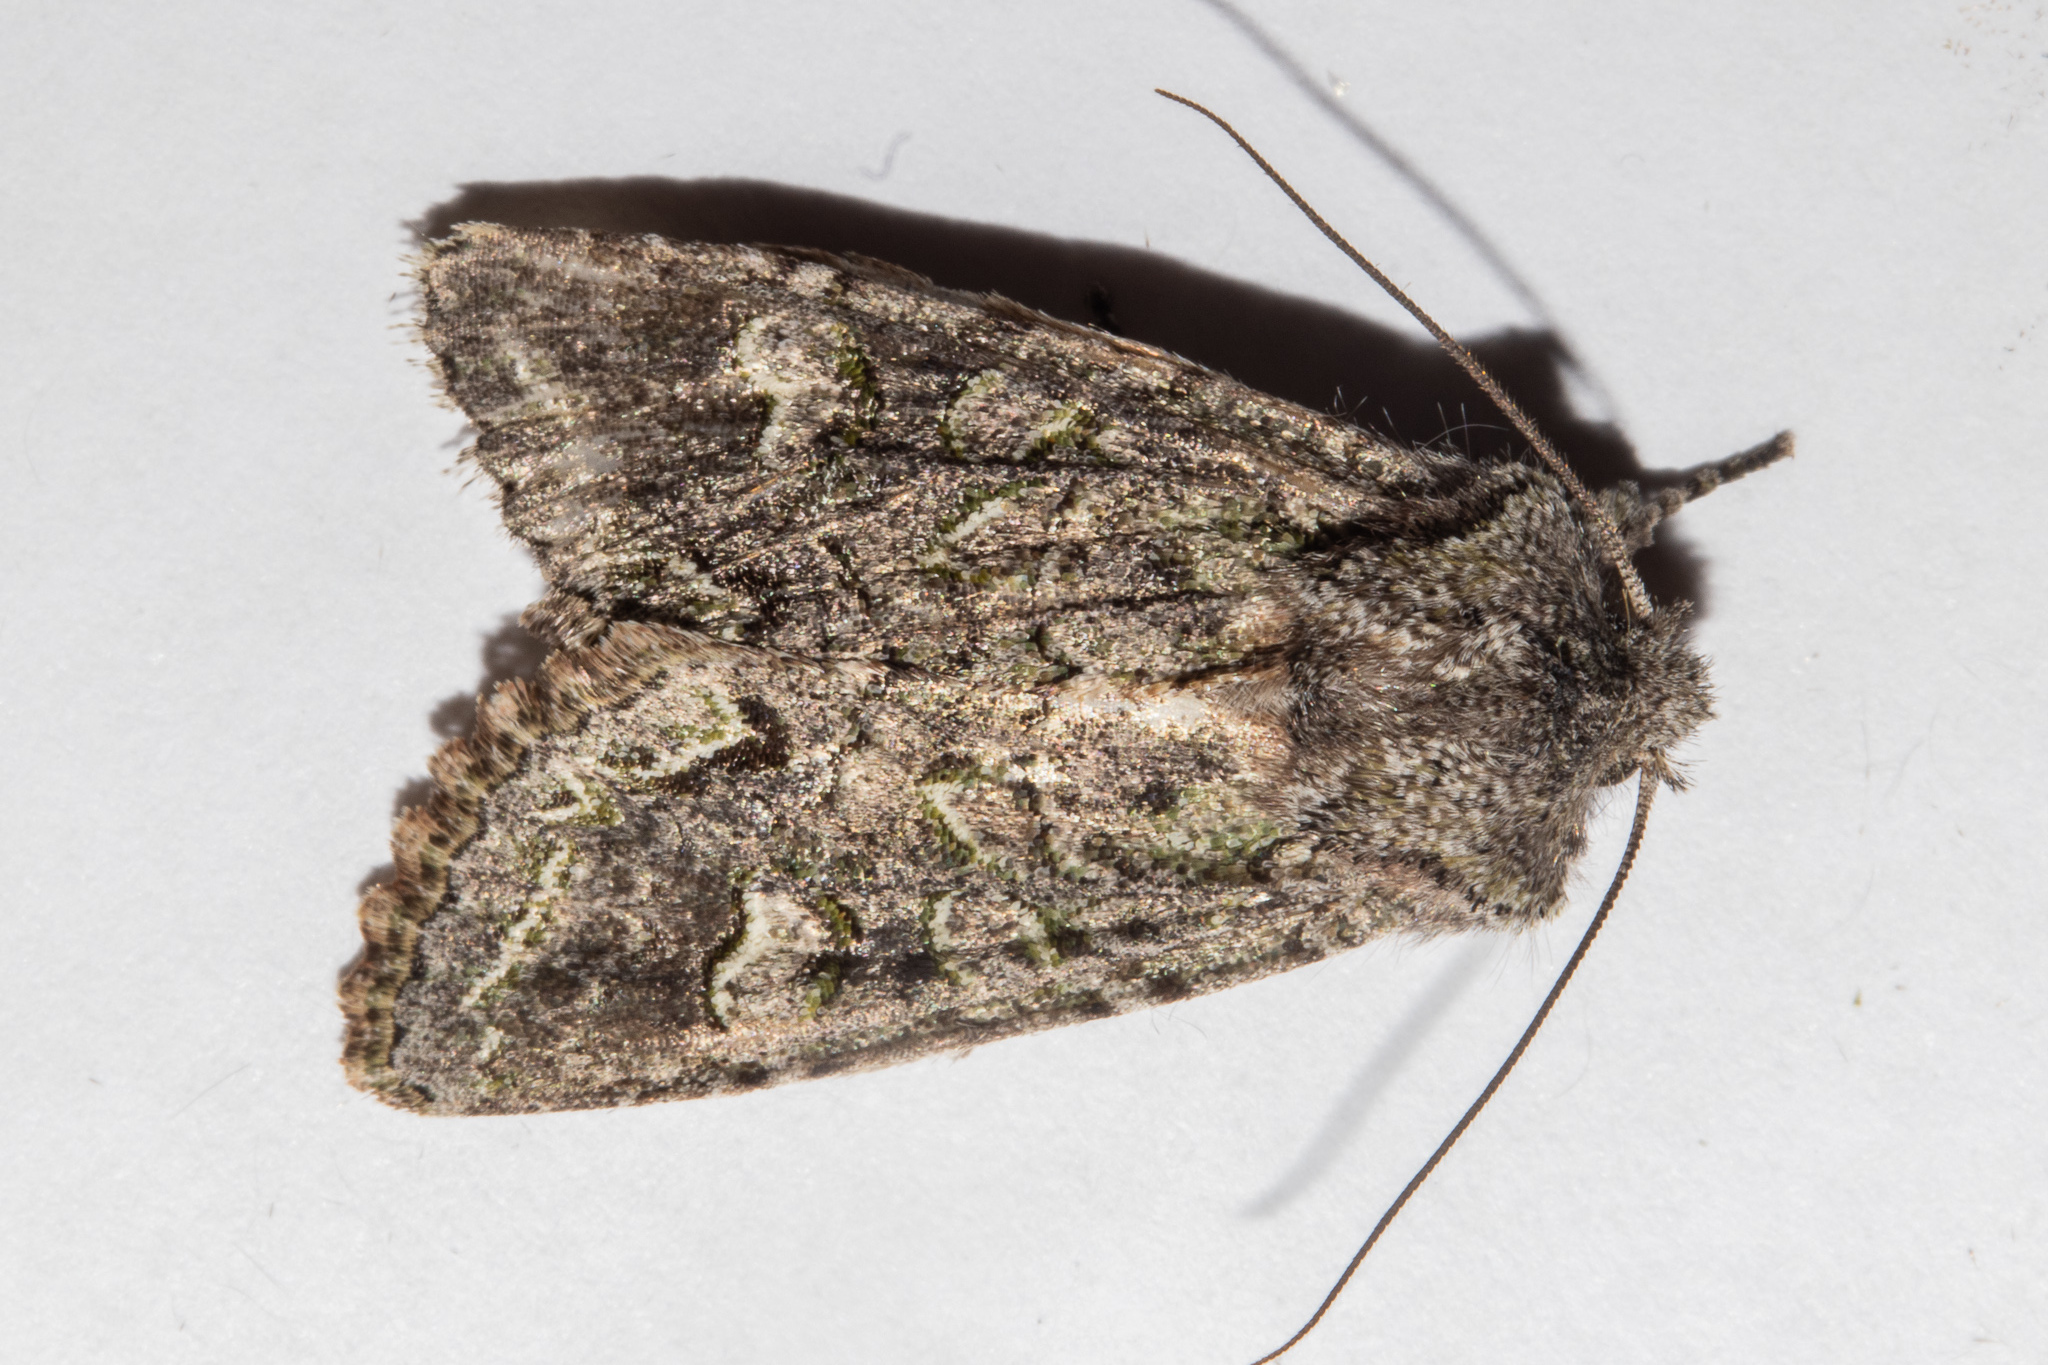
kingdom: Animalia
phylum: Arthropoda
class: Insecta
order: Lepidoptera
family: Noctuidae
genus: Ichneutica
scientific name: Ichneutica
